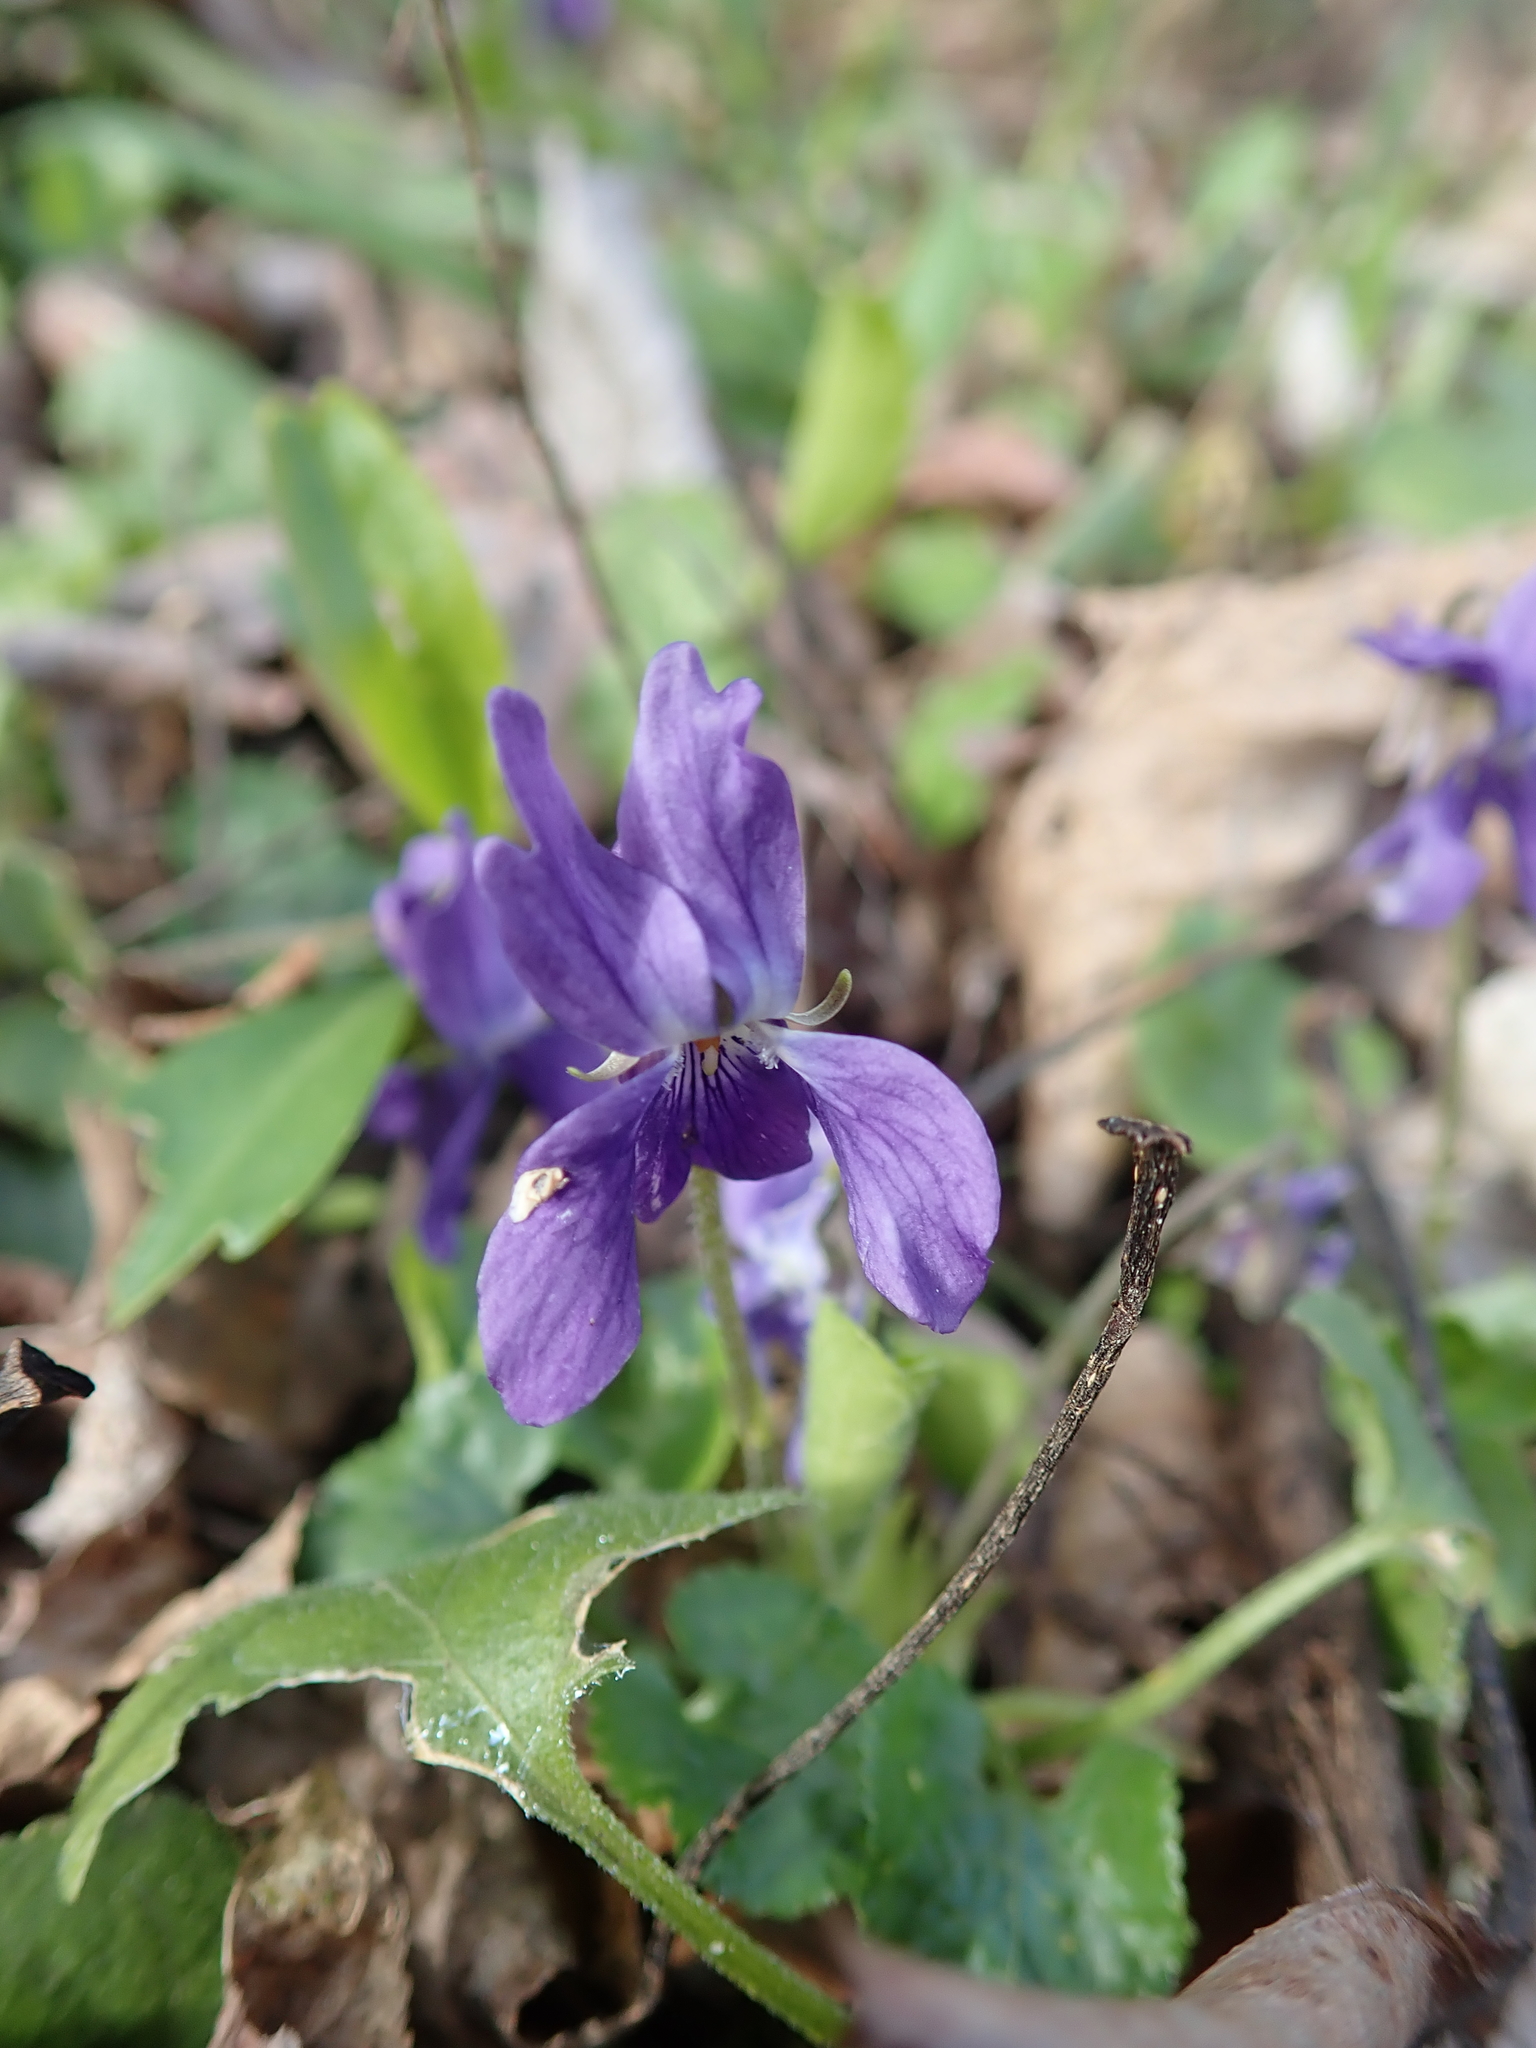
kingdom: Plantae
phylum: Tracheophyta
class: Magnoliopsida
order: Malpighiales
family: Violaceae
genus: Viola
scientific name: Viola odorata
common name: Sweet violet
